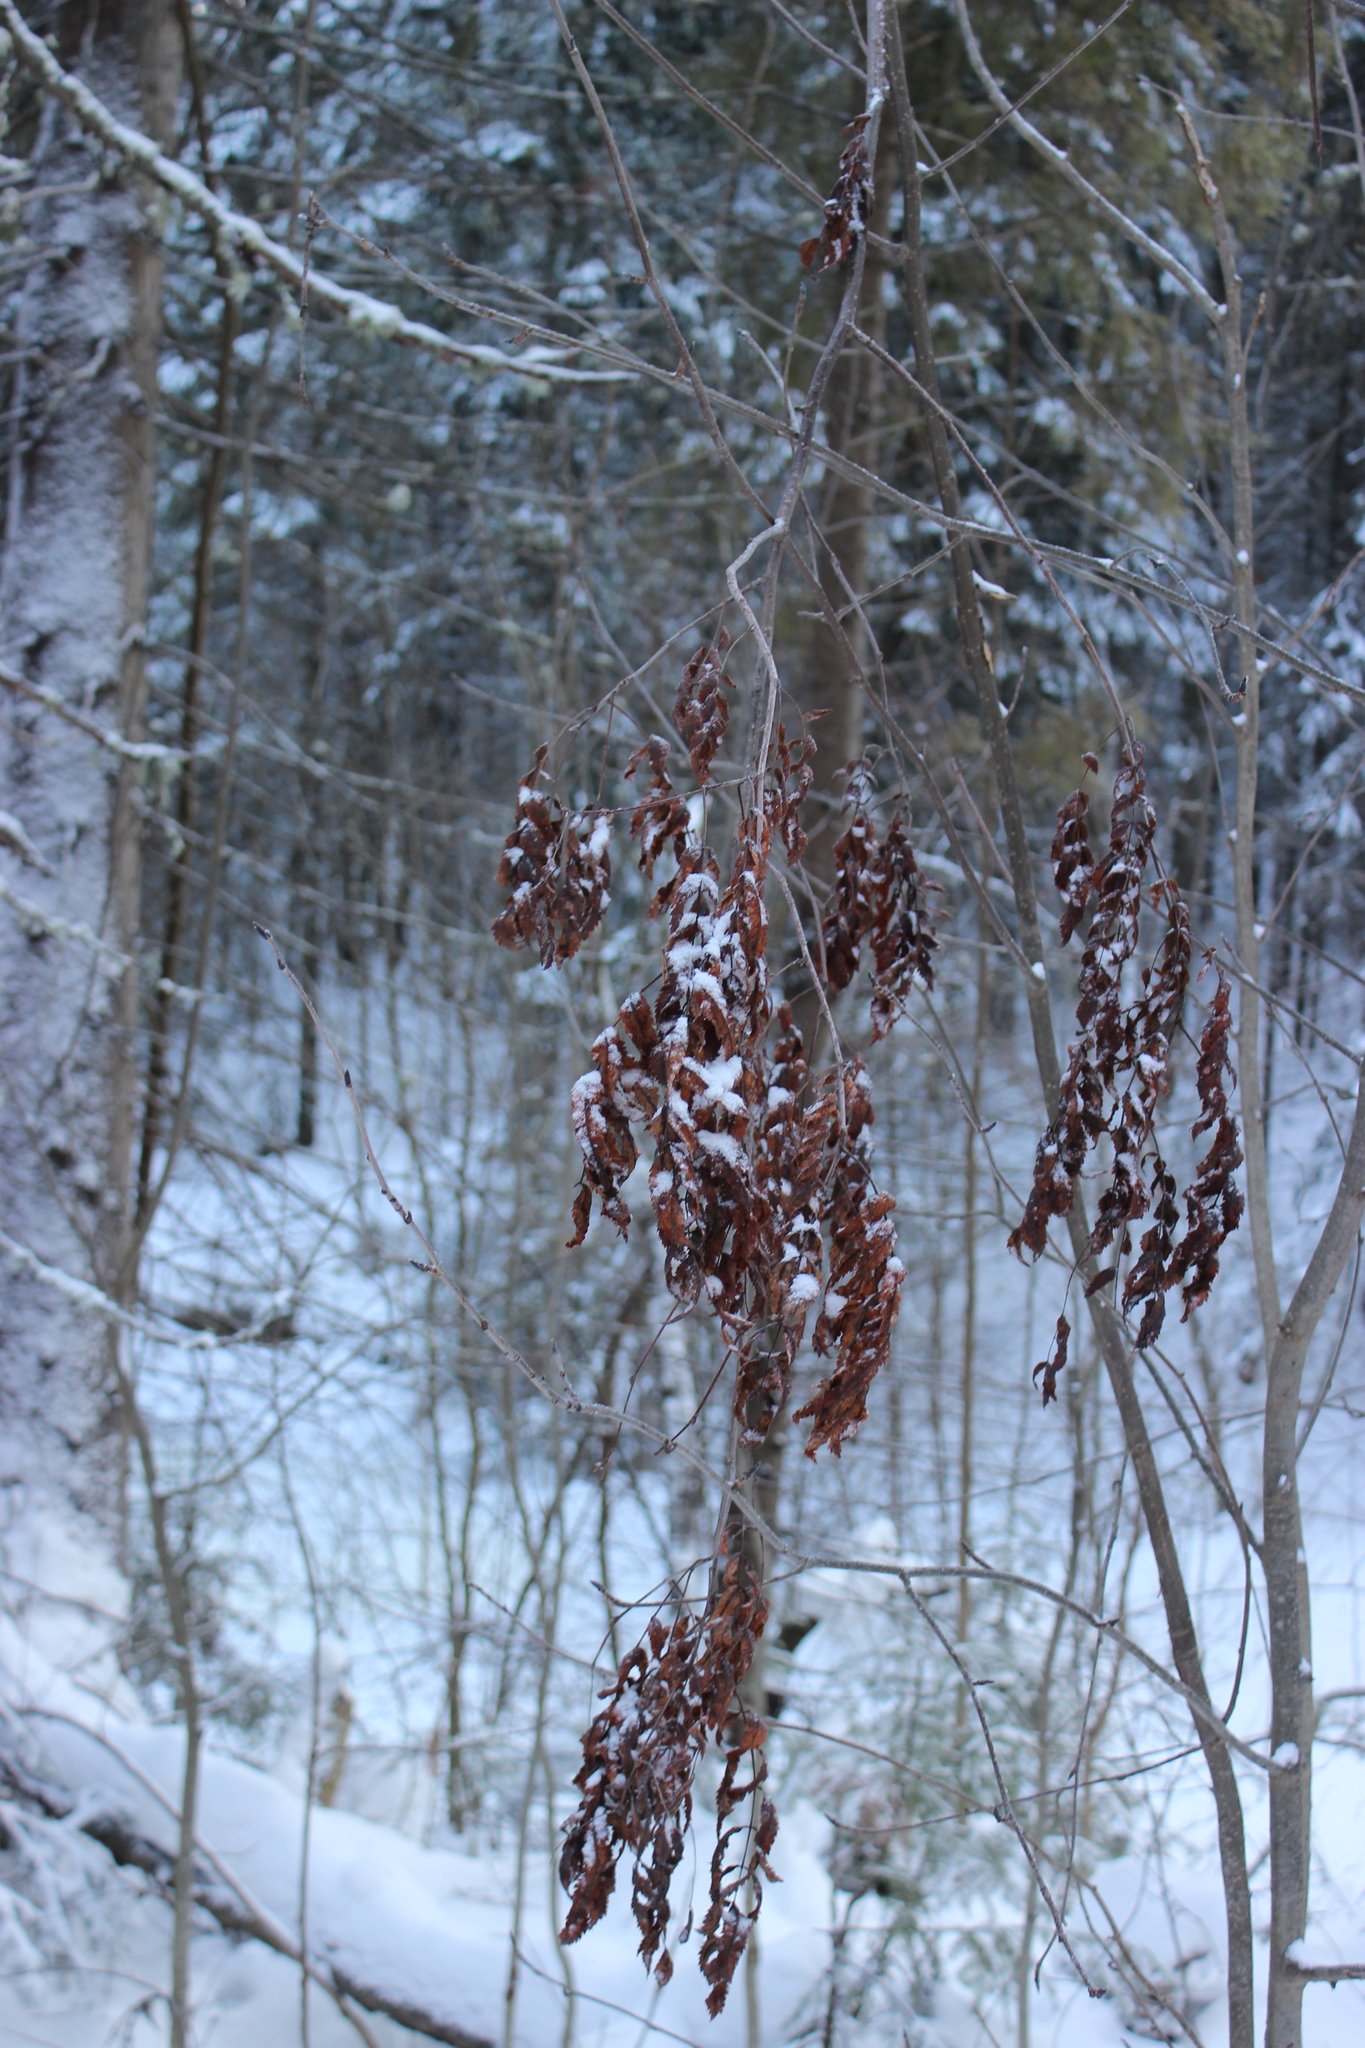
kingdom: Plantae
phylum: Tracheophyta
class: Magnoliopsida
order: Rosales
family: Rosaceae
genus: Sorbus
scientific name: Sorbus aucuparia
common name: Rowan
